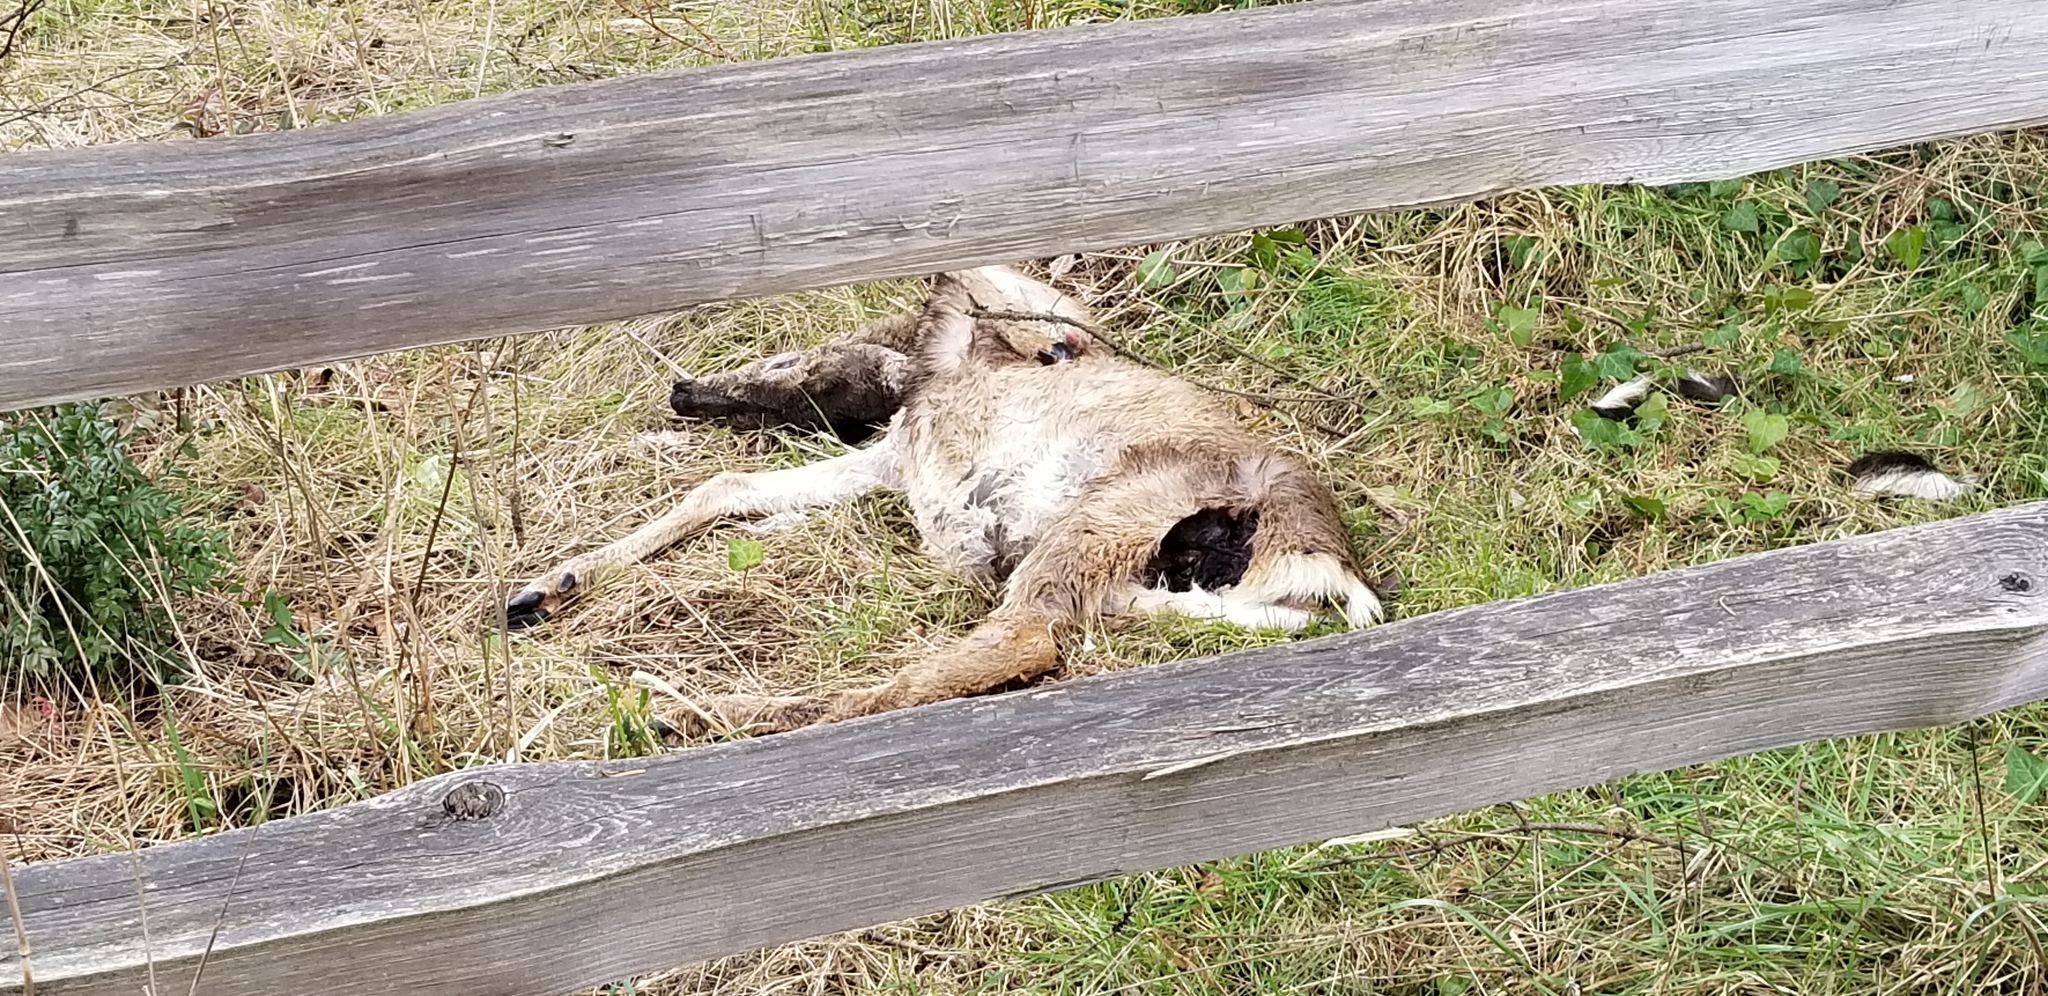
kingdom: Animalia
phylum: Chordata
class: Mammalia
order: Artiodactyla
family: Cervidae
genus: Odocoileus
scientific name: Odocoileus hemionus
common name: Mule deer
